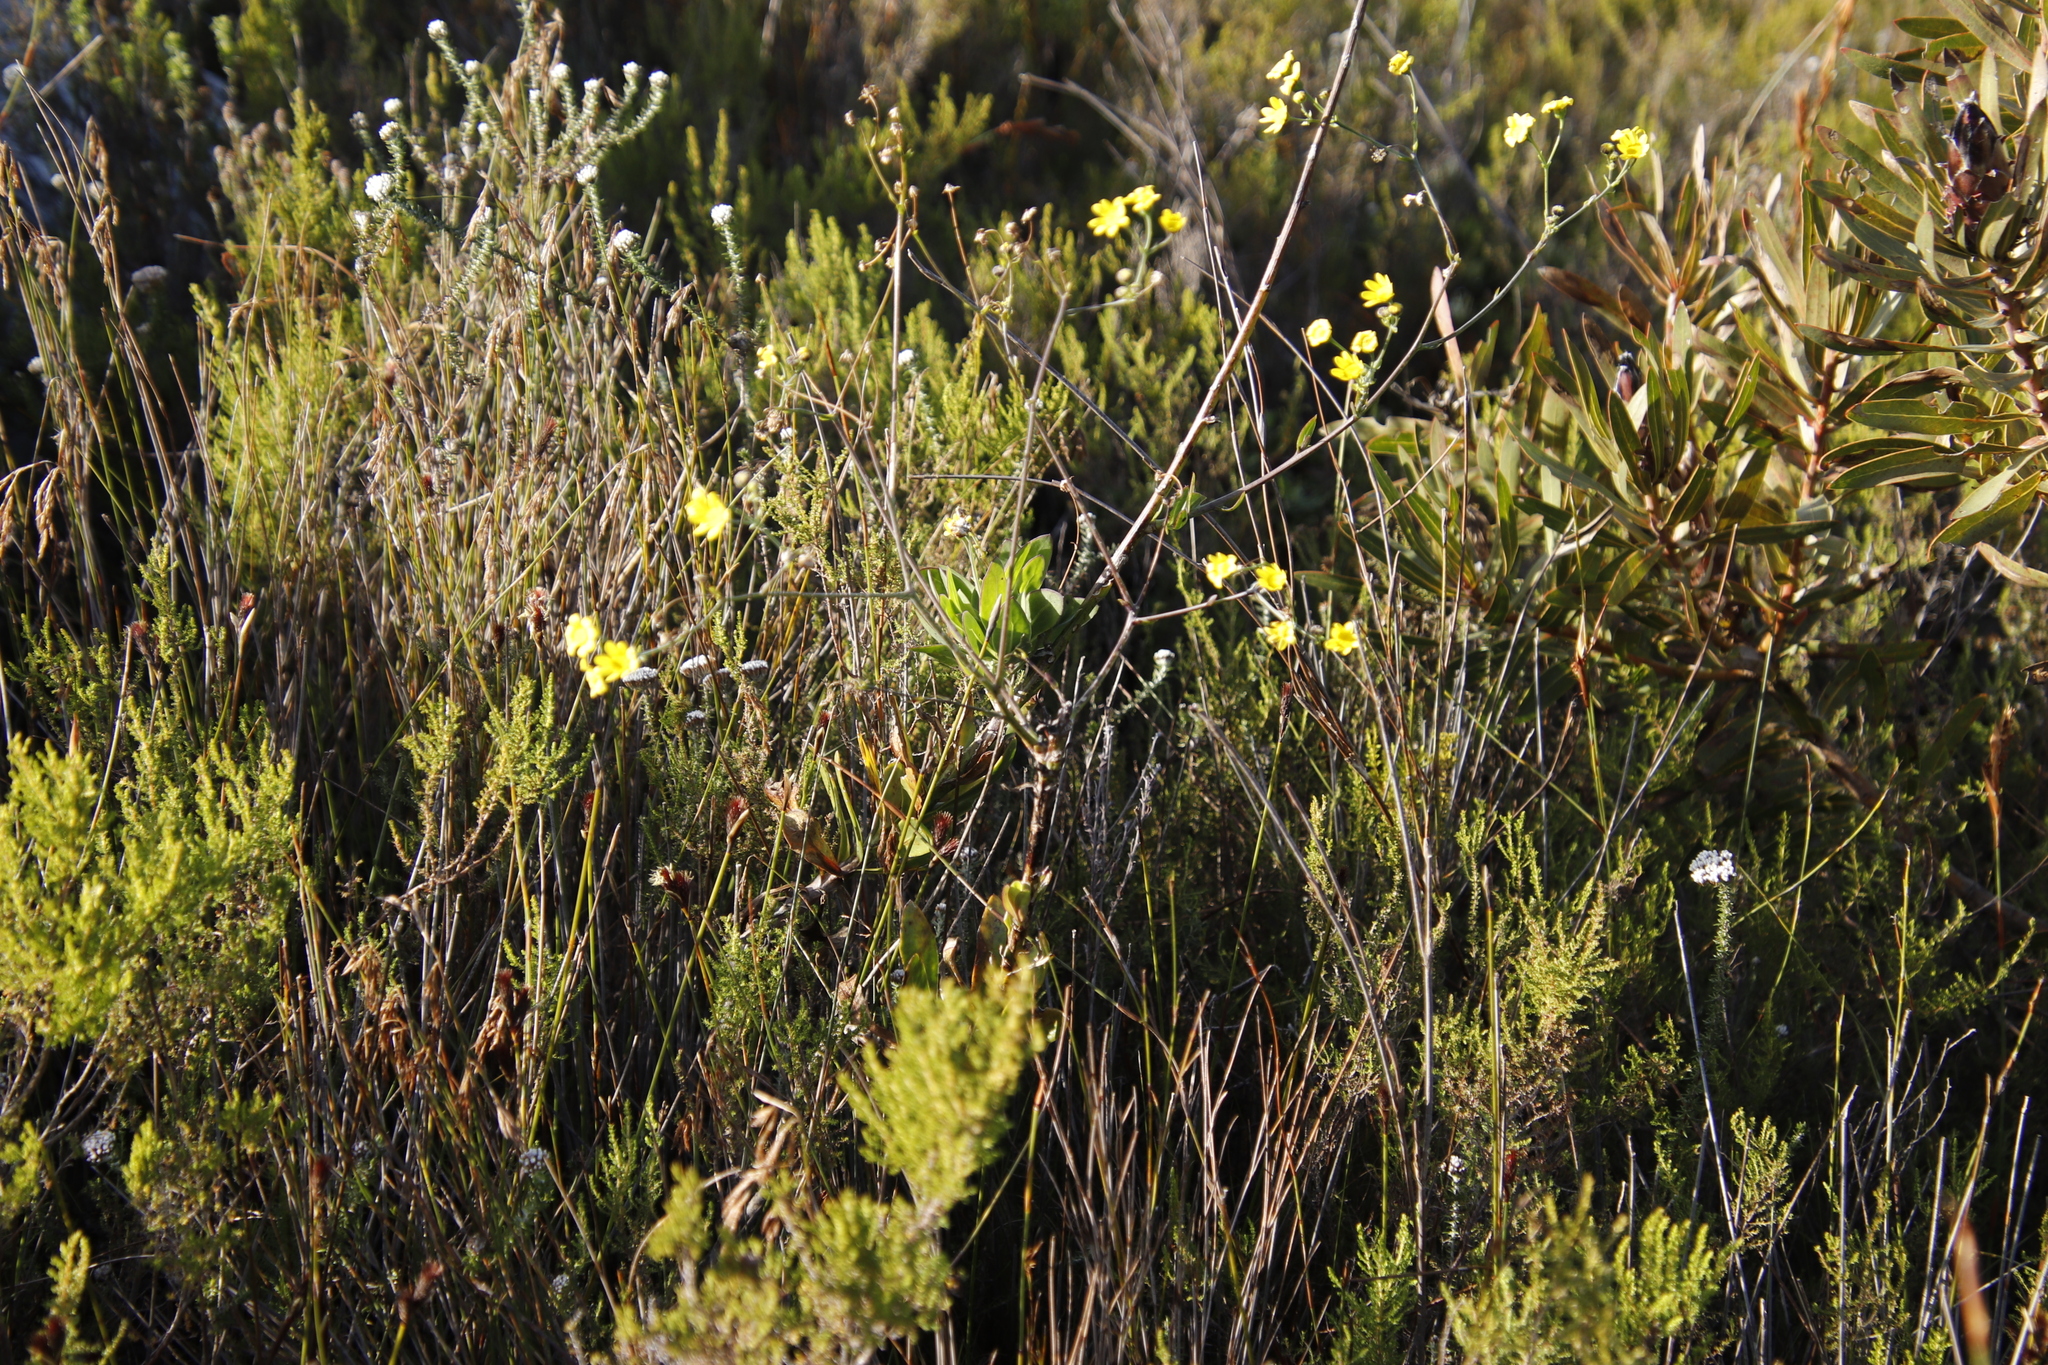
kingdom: Plantae
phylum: Tracheophyta
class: Magnoliopsida
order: Asterales
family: Asteraceae
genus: Othonna
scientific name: Othonna quinquedentata
